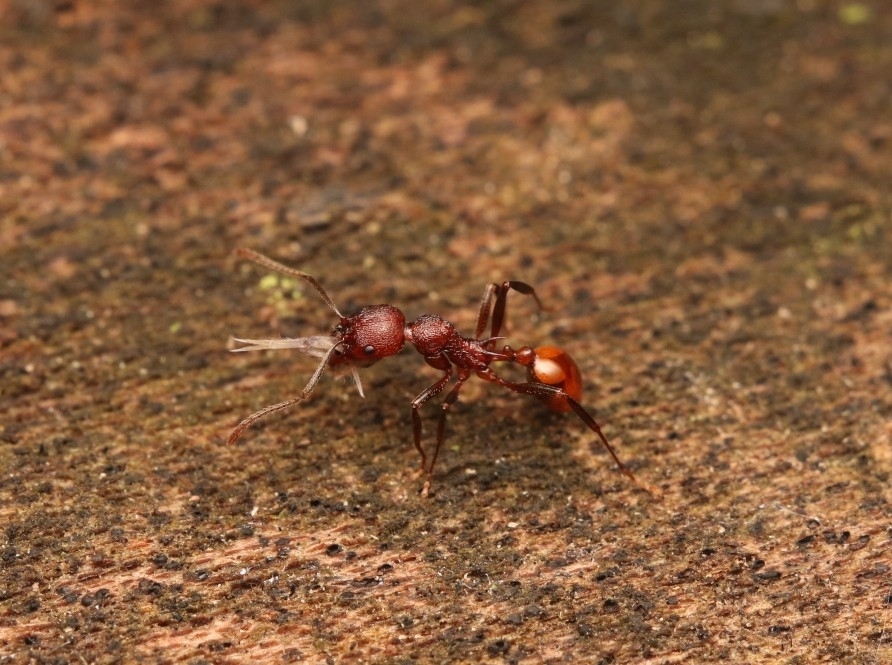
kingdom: Animalia
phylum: Arthropoda
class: Insecta
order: Hymenoptera
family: Formicidae
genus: Aphaenogaster
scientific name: Aphaenogaster tennesseensis
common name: Tennessee thread-waisted ant
